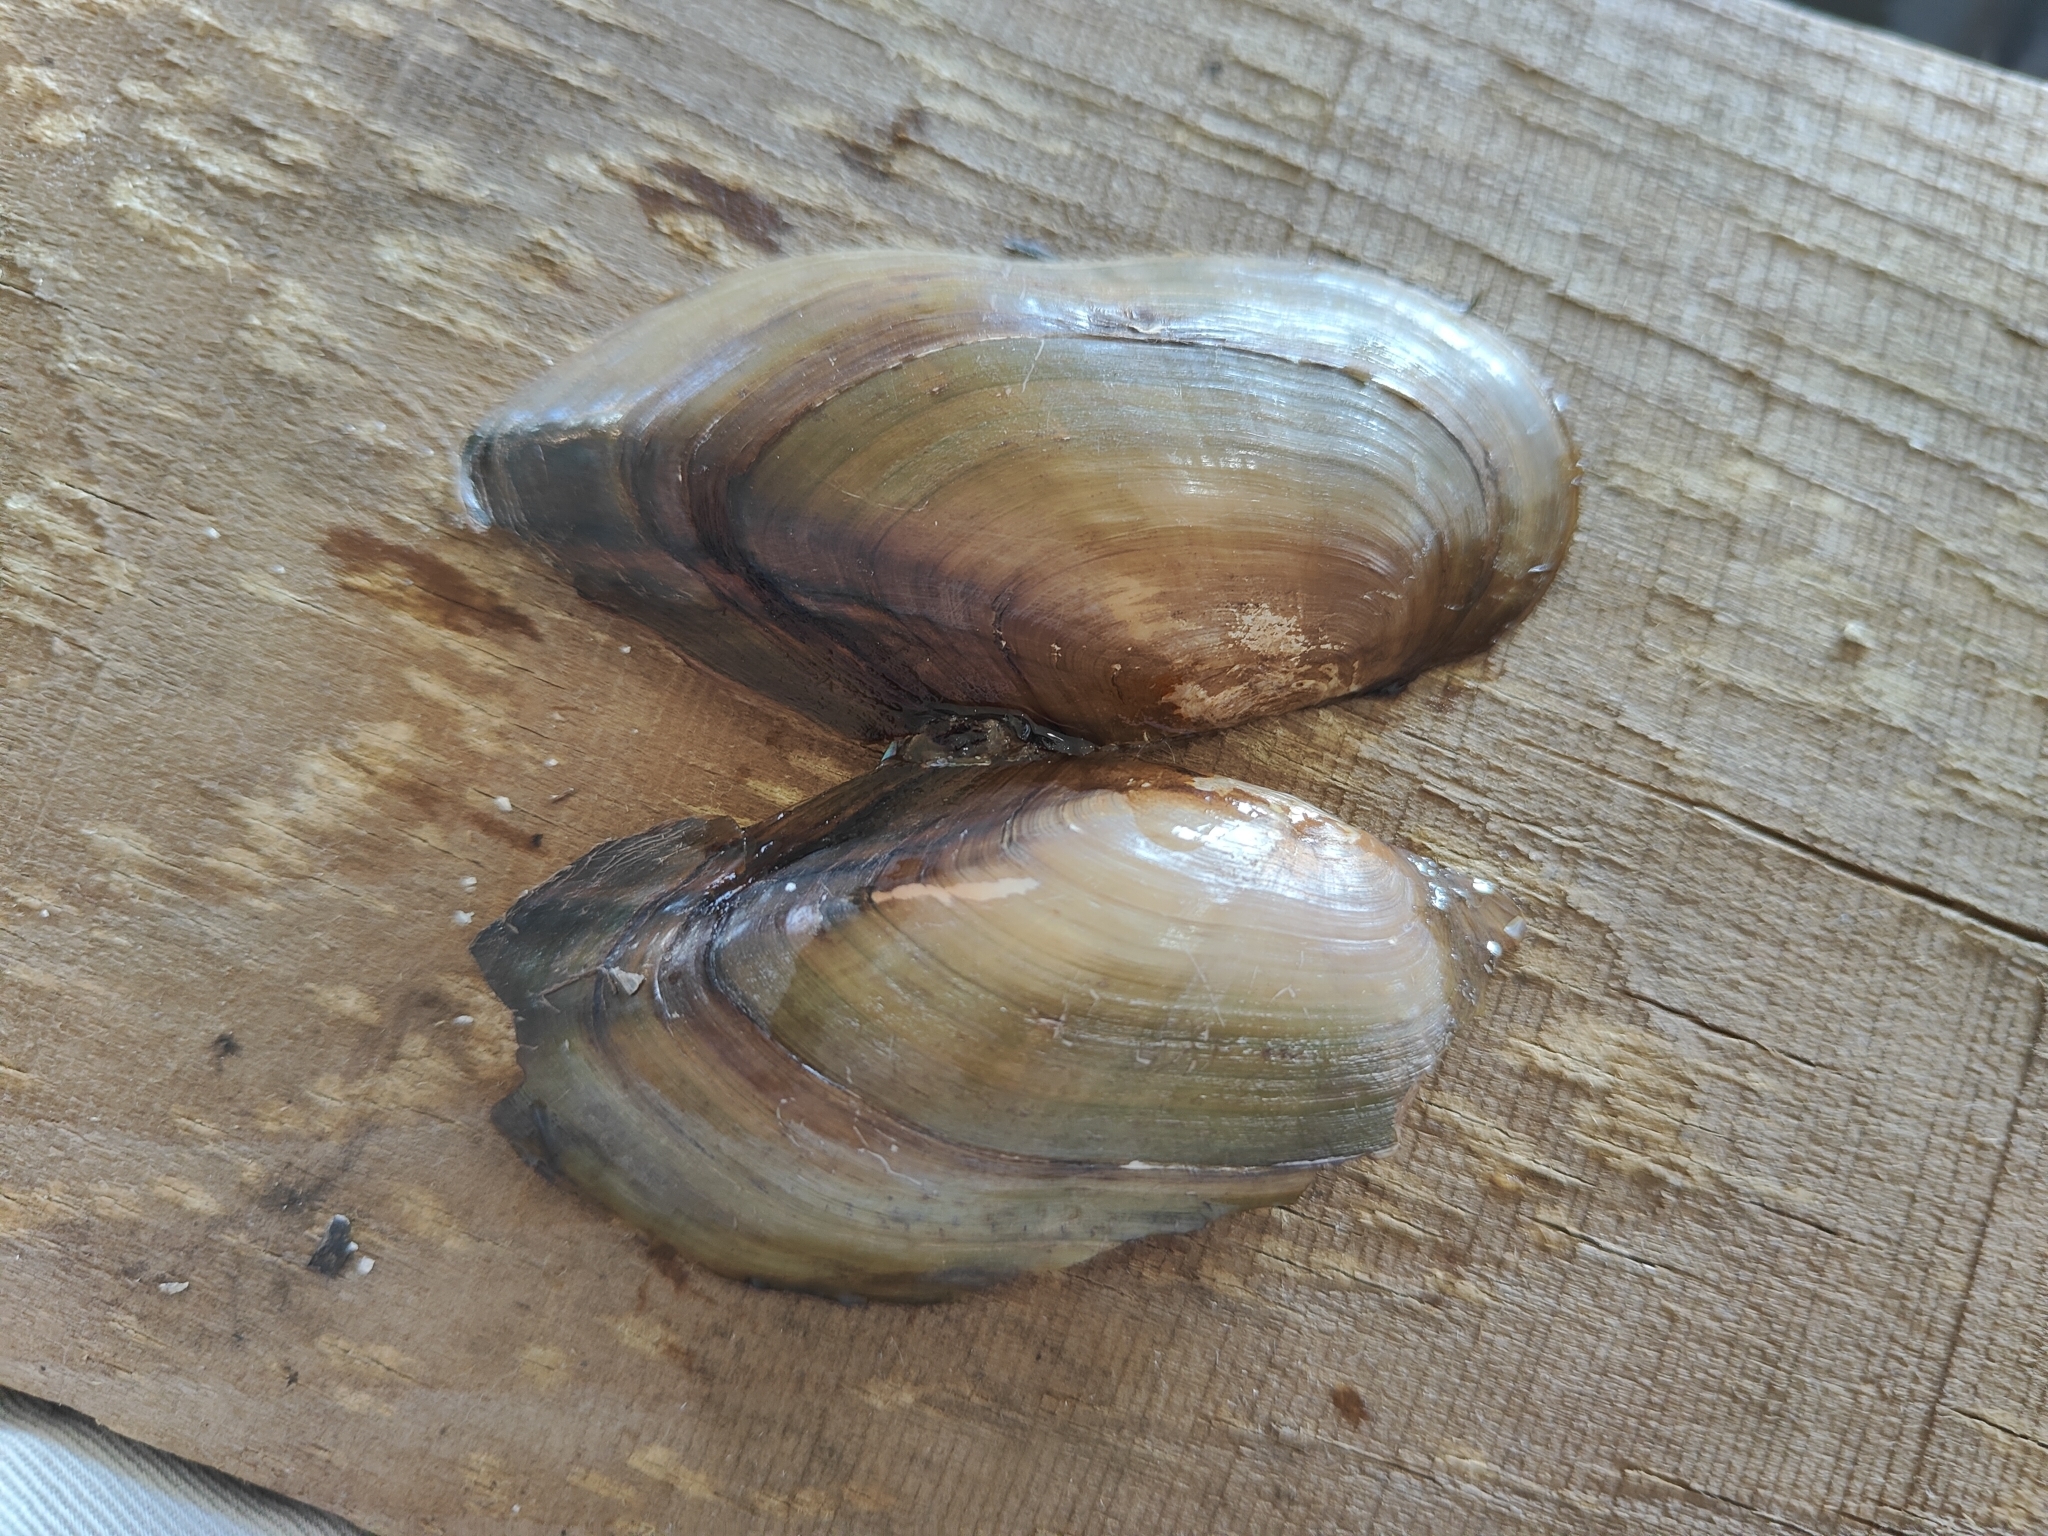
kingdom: Animalia
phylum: Mollusca
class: Bivalvia
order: Unionida
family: Unionidae
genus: Utterbackia
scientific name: Utterbackia imbecillis
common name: Paper pondshell
